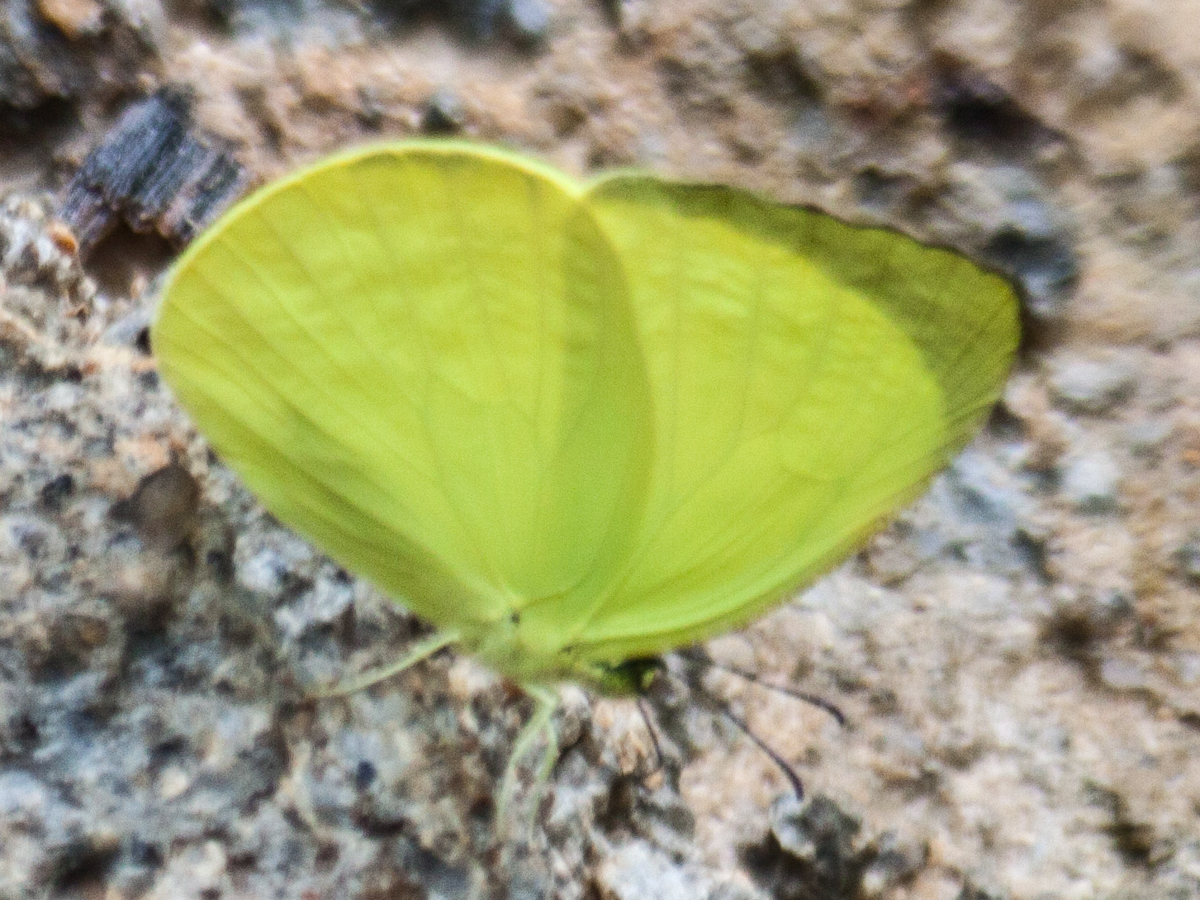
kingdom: Animalia
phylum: Arthropoda
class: Insecta
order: Lepidoptera
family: Pieridae
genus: Gandaca
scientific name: Gandaca harina
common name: Tree yellow
